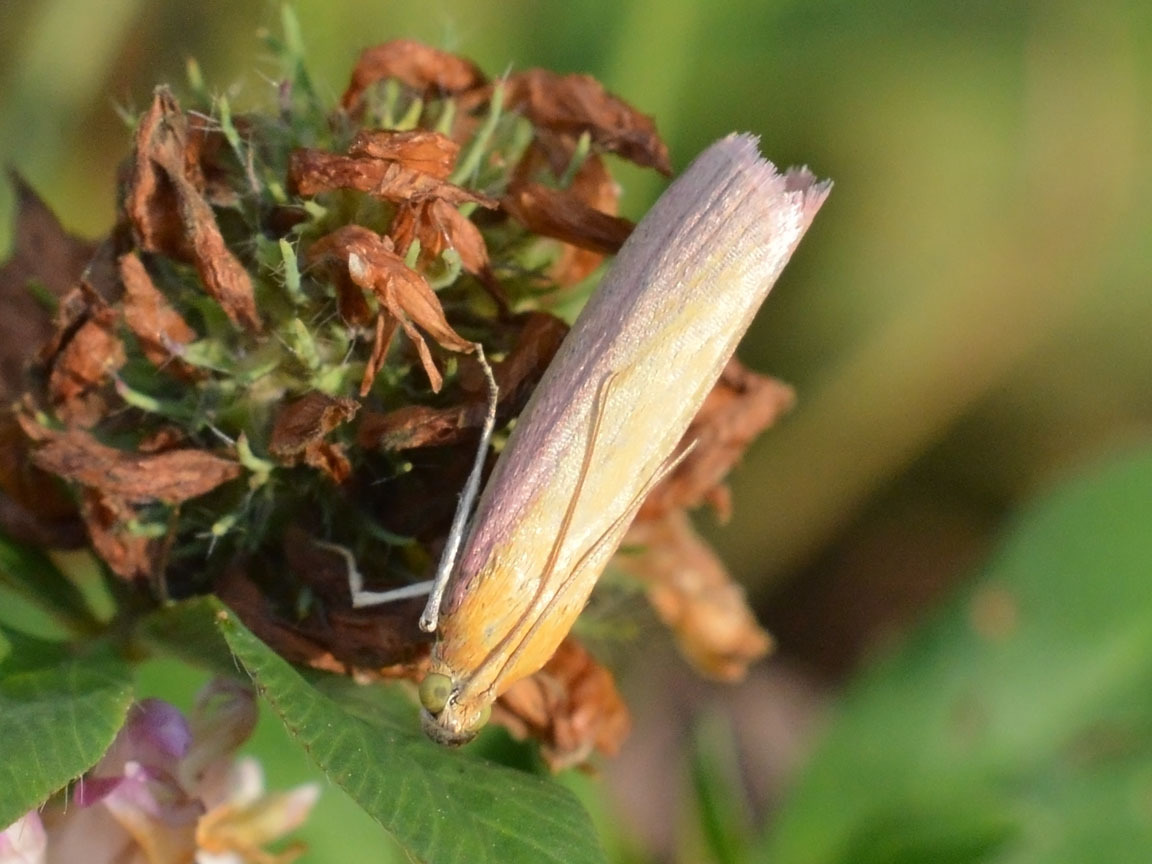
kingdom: Animalia
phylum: Arthropoda
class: Insecta
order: Lepidoptera
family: Pyralidae
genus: Oncocera
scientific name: Oncocera semirubella
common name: Rosy-striped knot-horn
